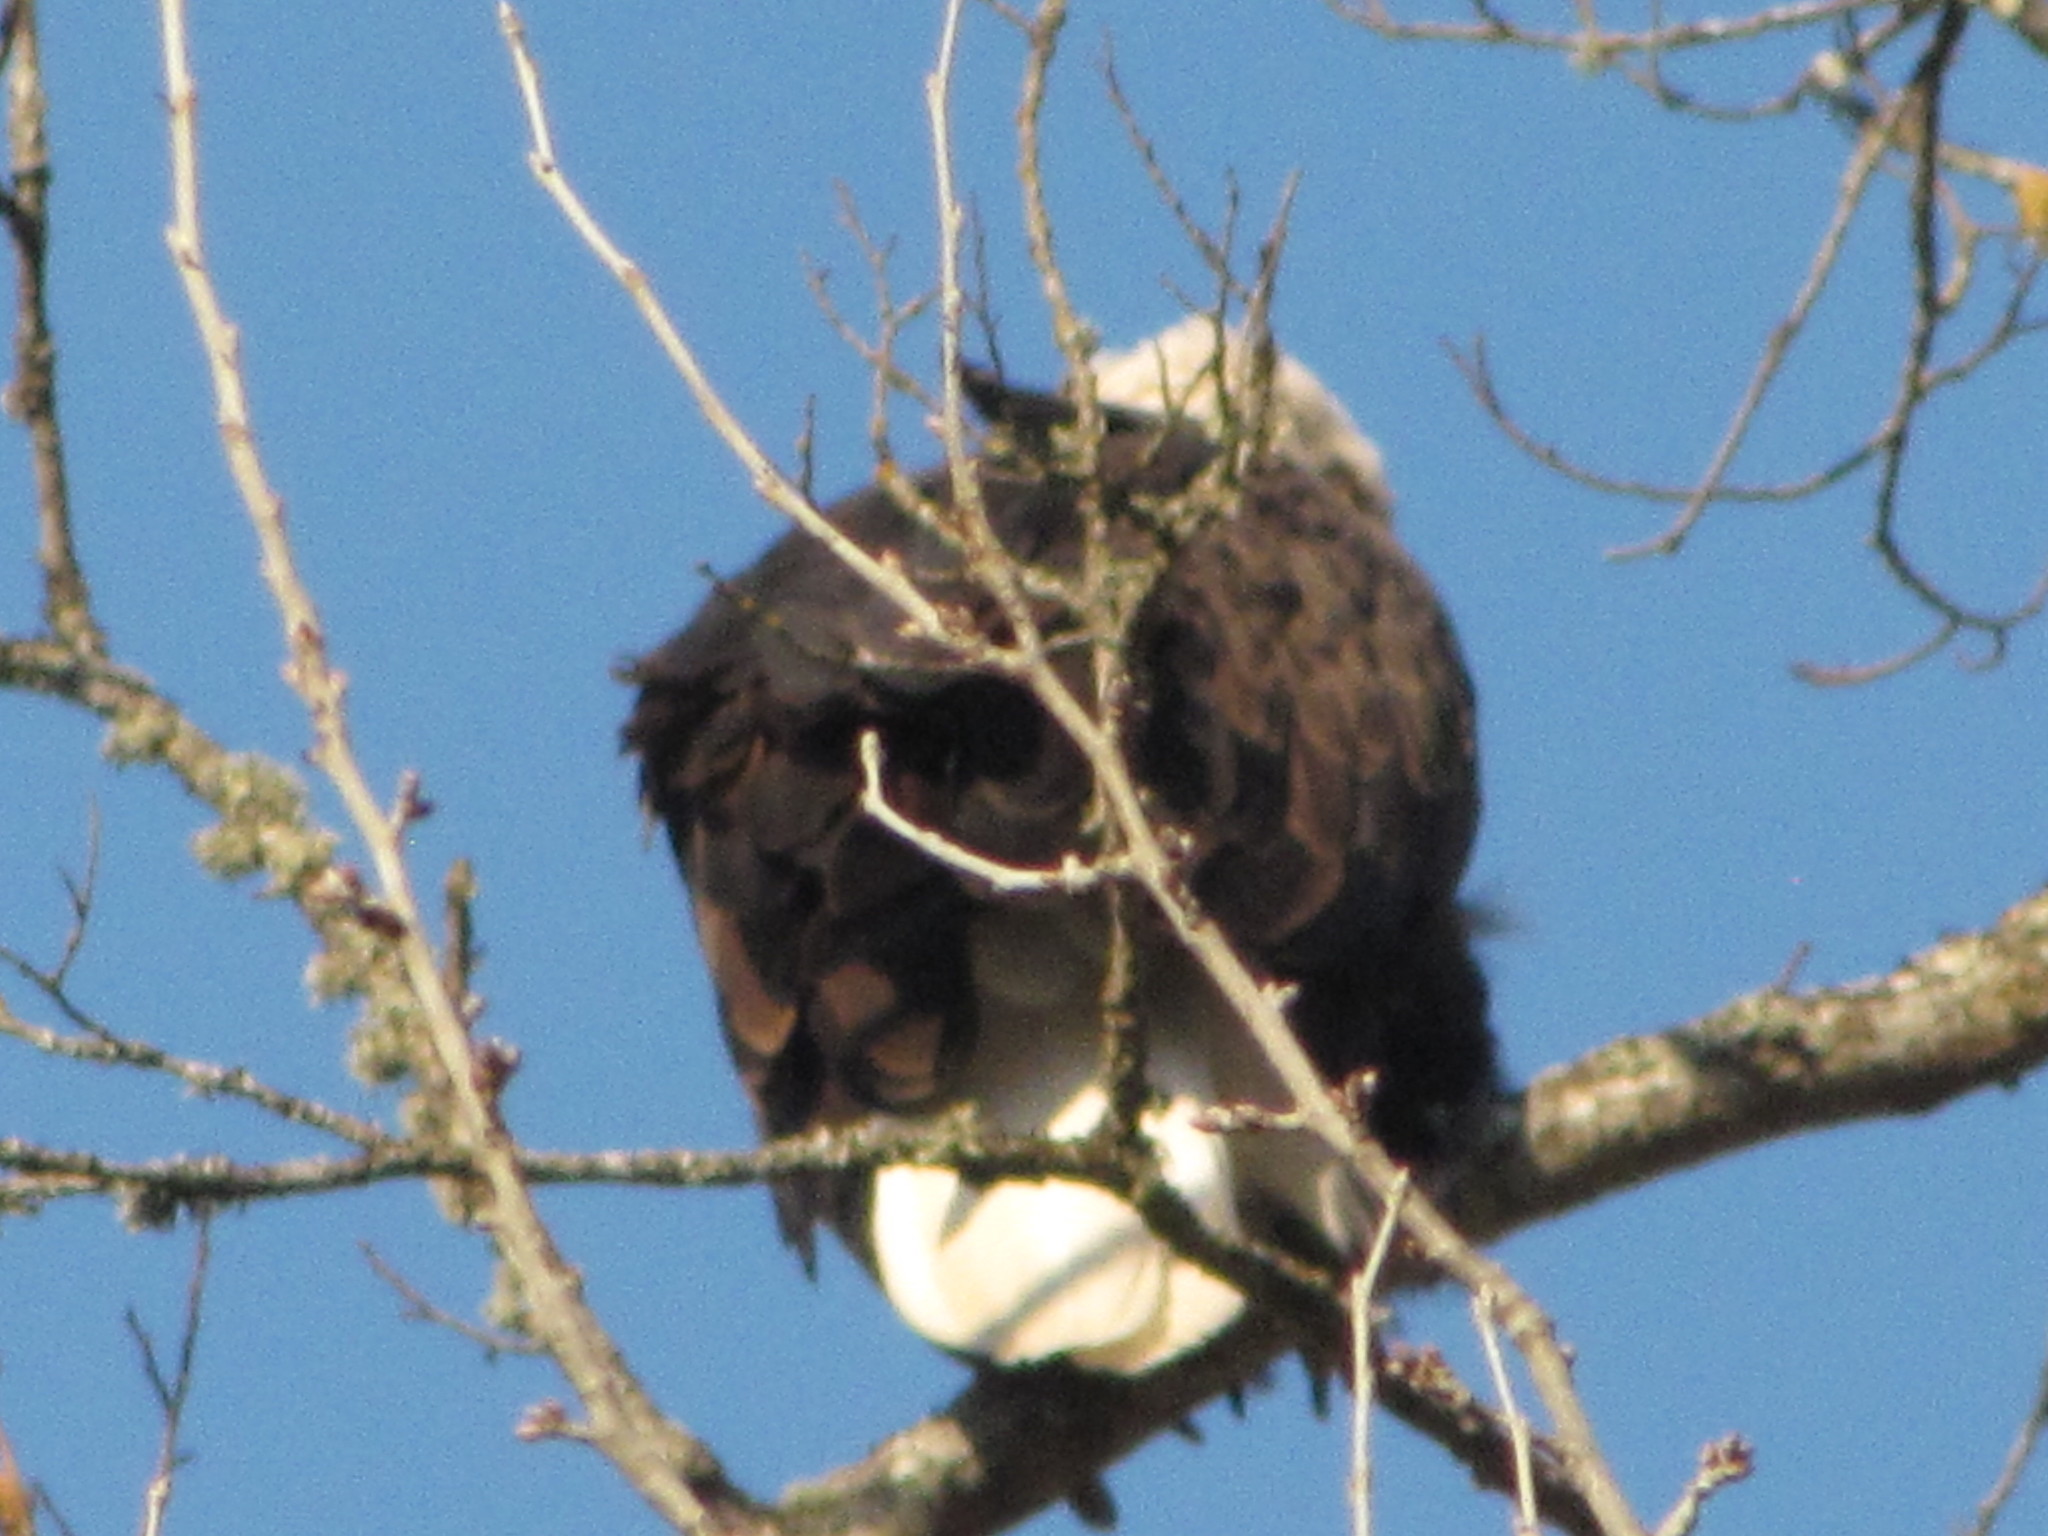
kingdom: Animalia
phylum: Chordata
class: Aves
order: Accipitriformes
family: Accipitridae
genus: Haliaeetus
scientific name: Haliaeetus leucocephalus
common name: Bald eagle
